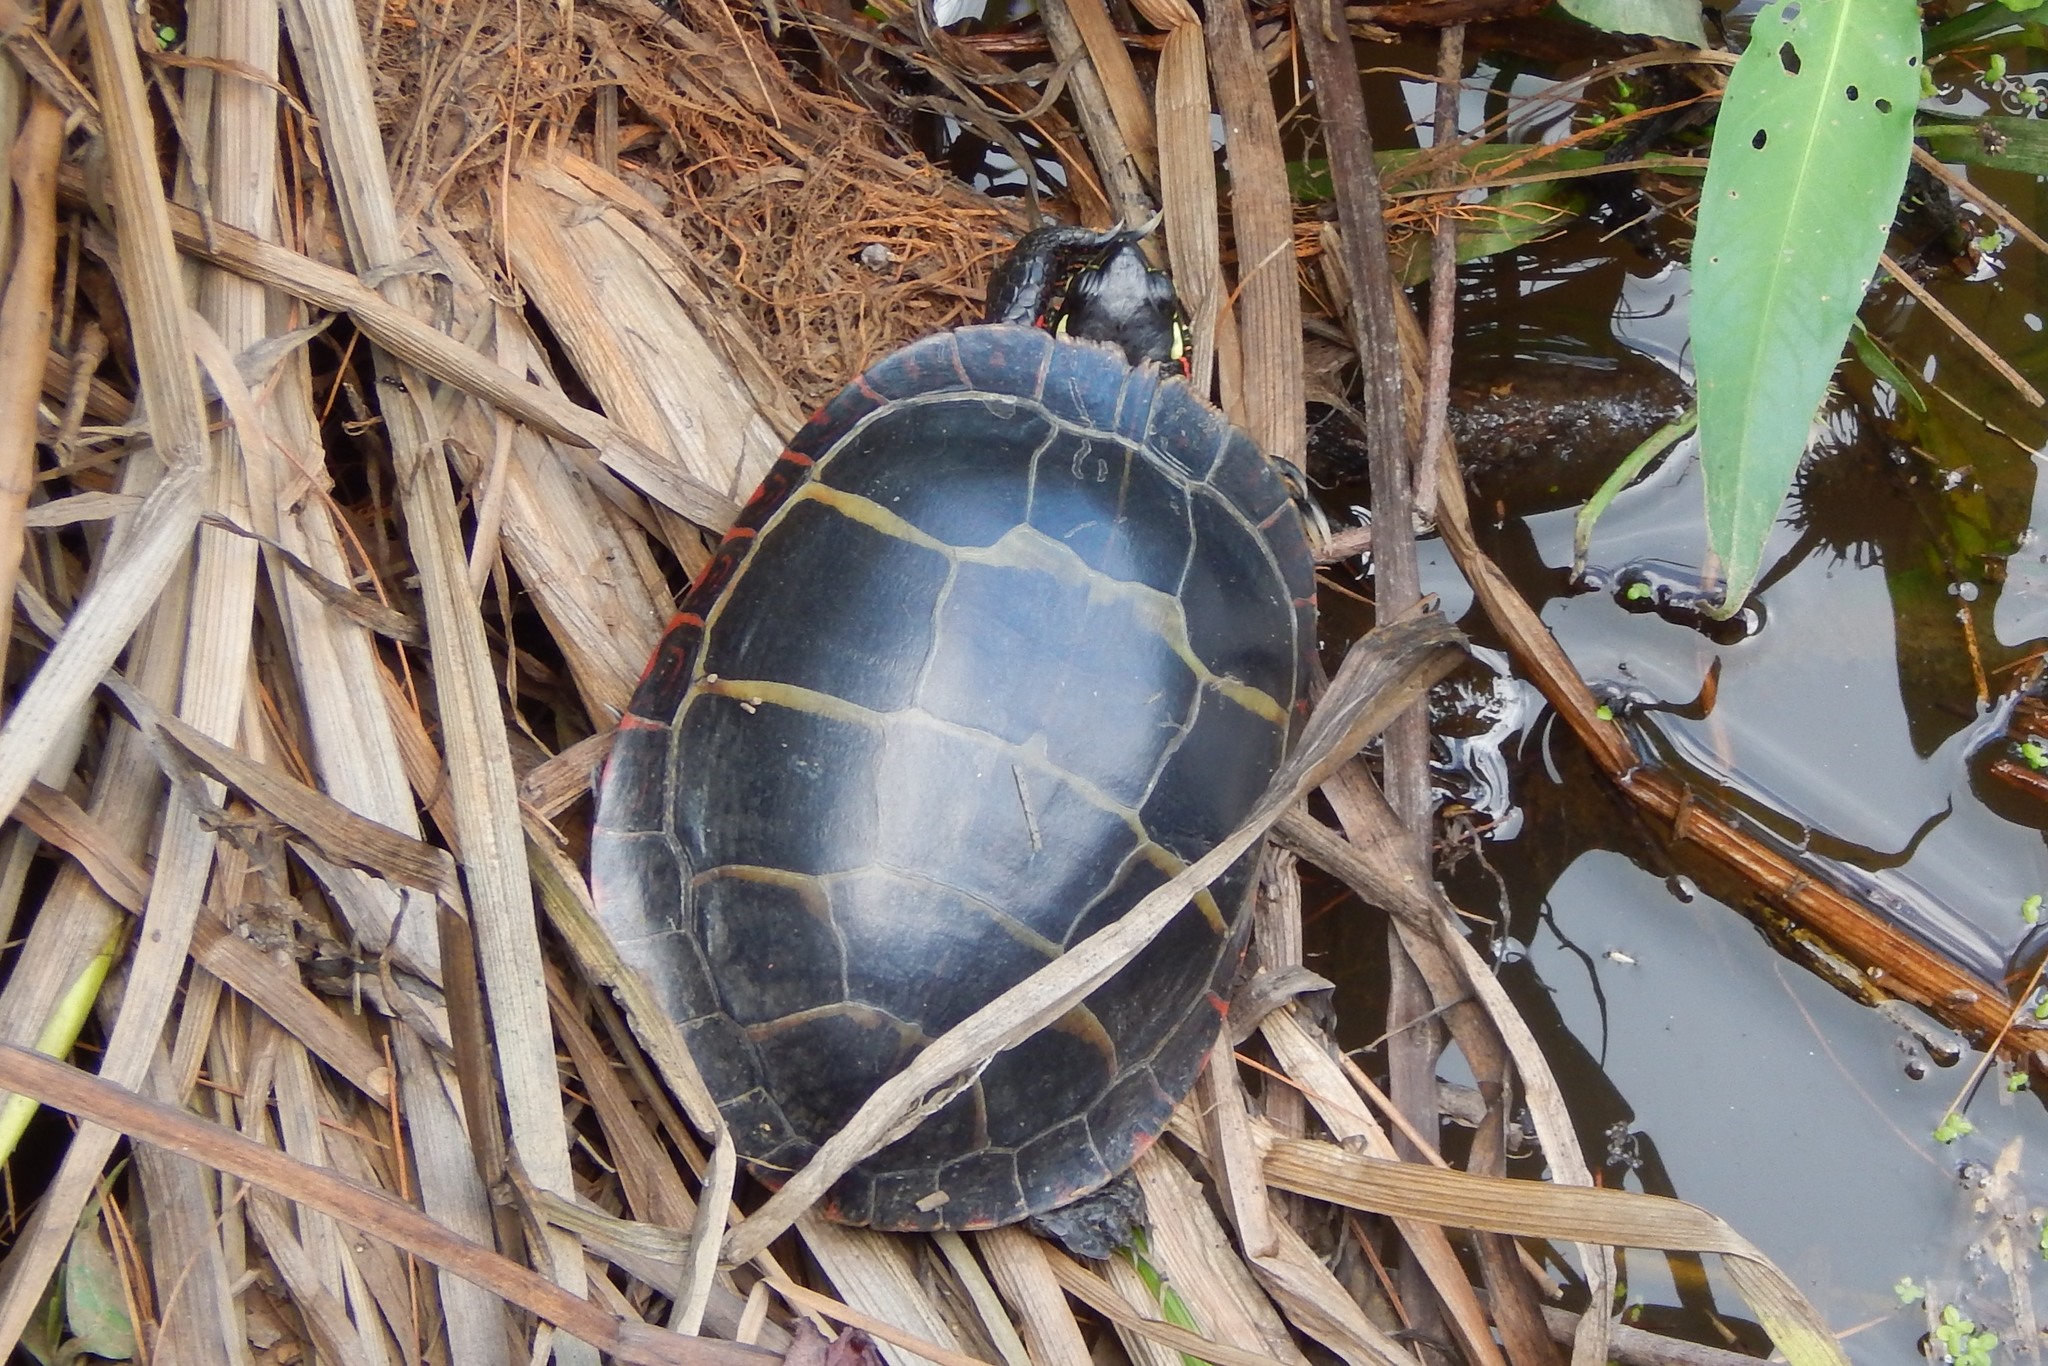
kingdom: Animalia
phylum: Chordata
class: Testudines
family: Emydidae
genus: Chrysemys
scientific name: Chrysemys picta
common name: Painted turtle
